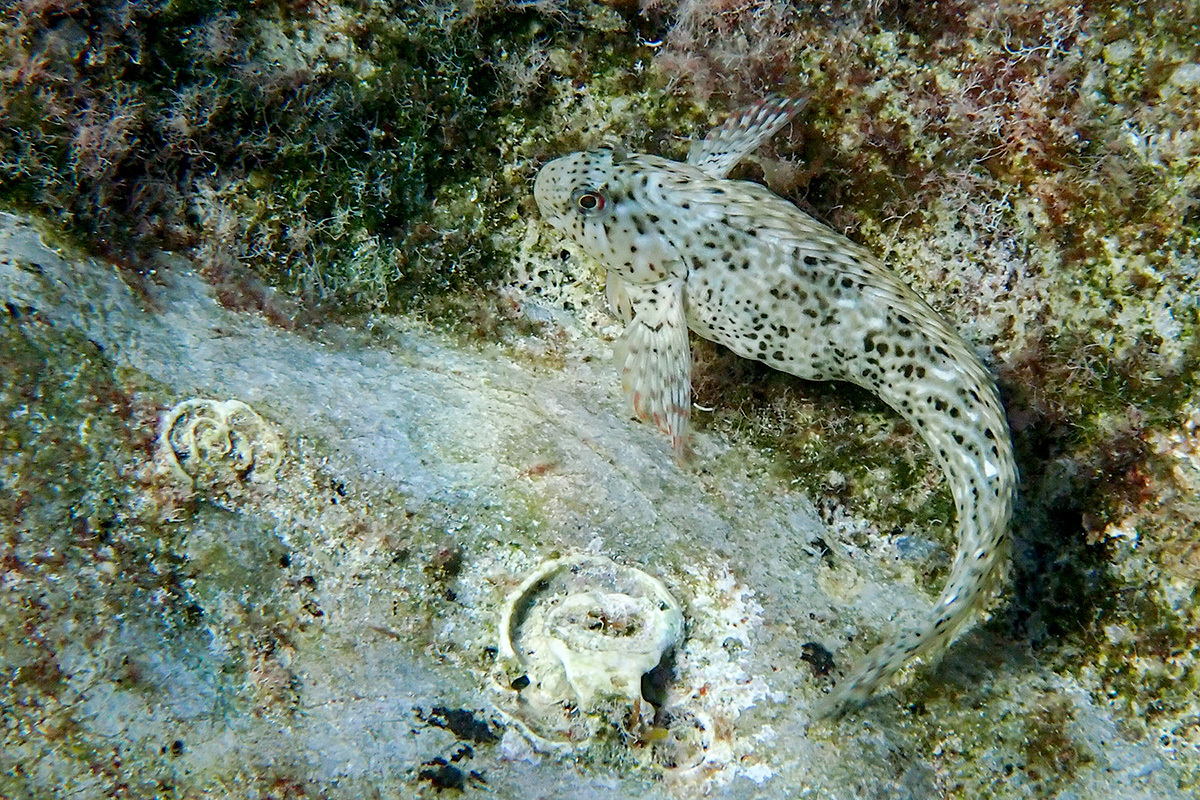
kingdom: Animalia
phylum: Chordata
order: Perciformes
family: Blenniidae
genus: Parablennius
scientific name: Parablennius sanguinolentus
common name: Black sea blenny
